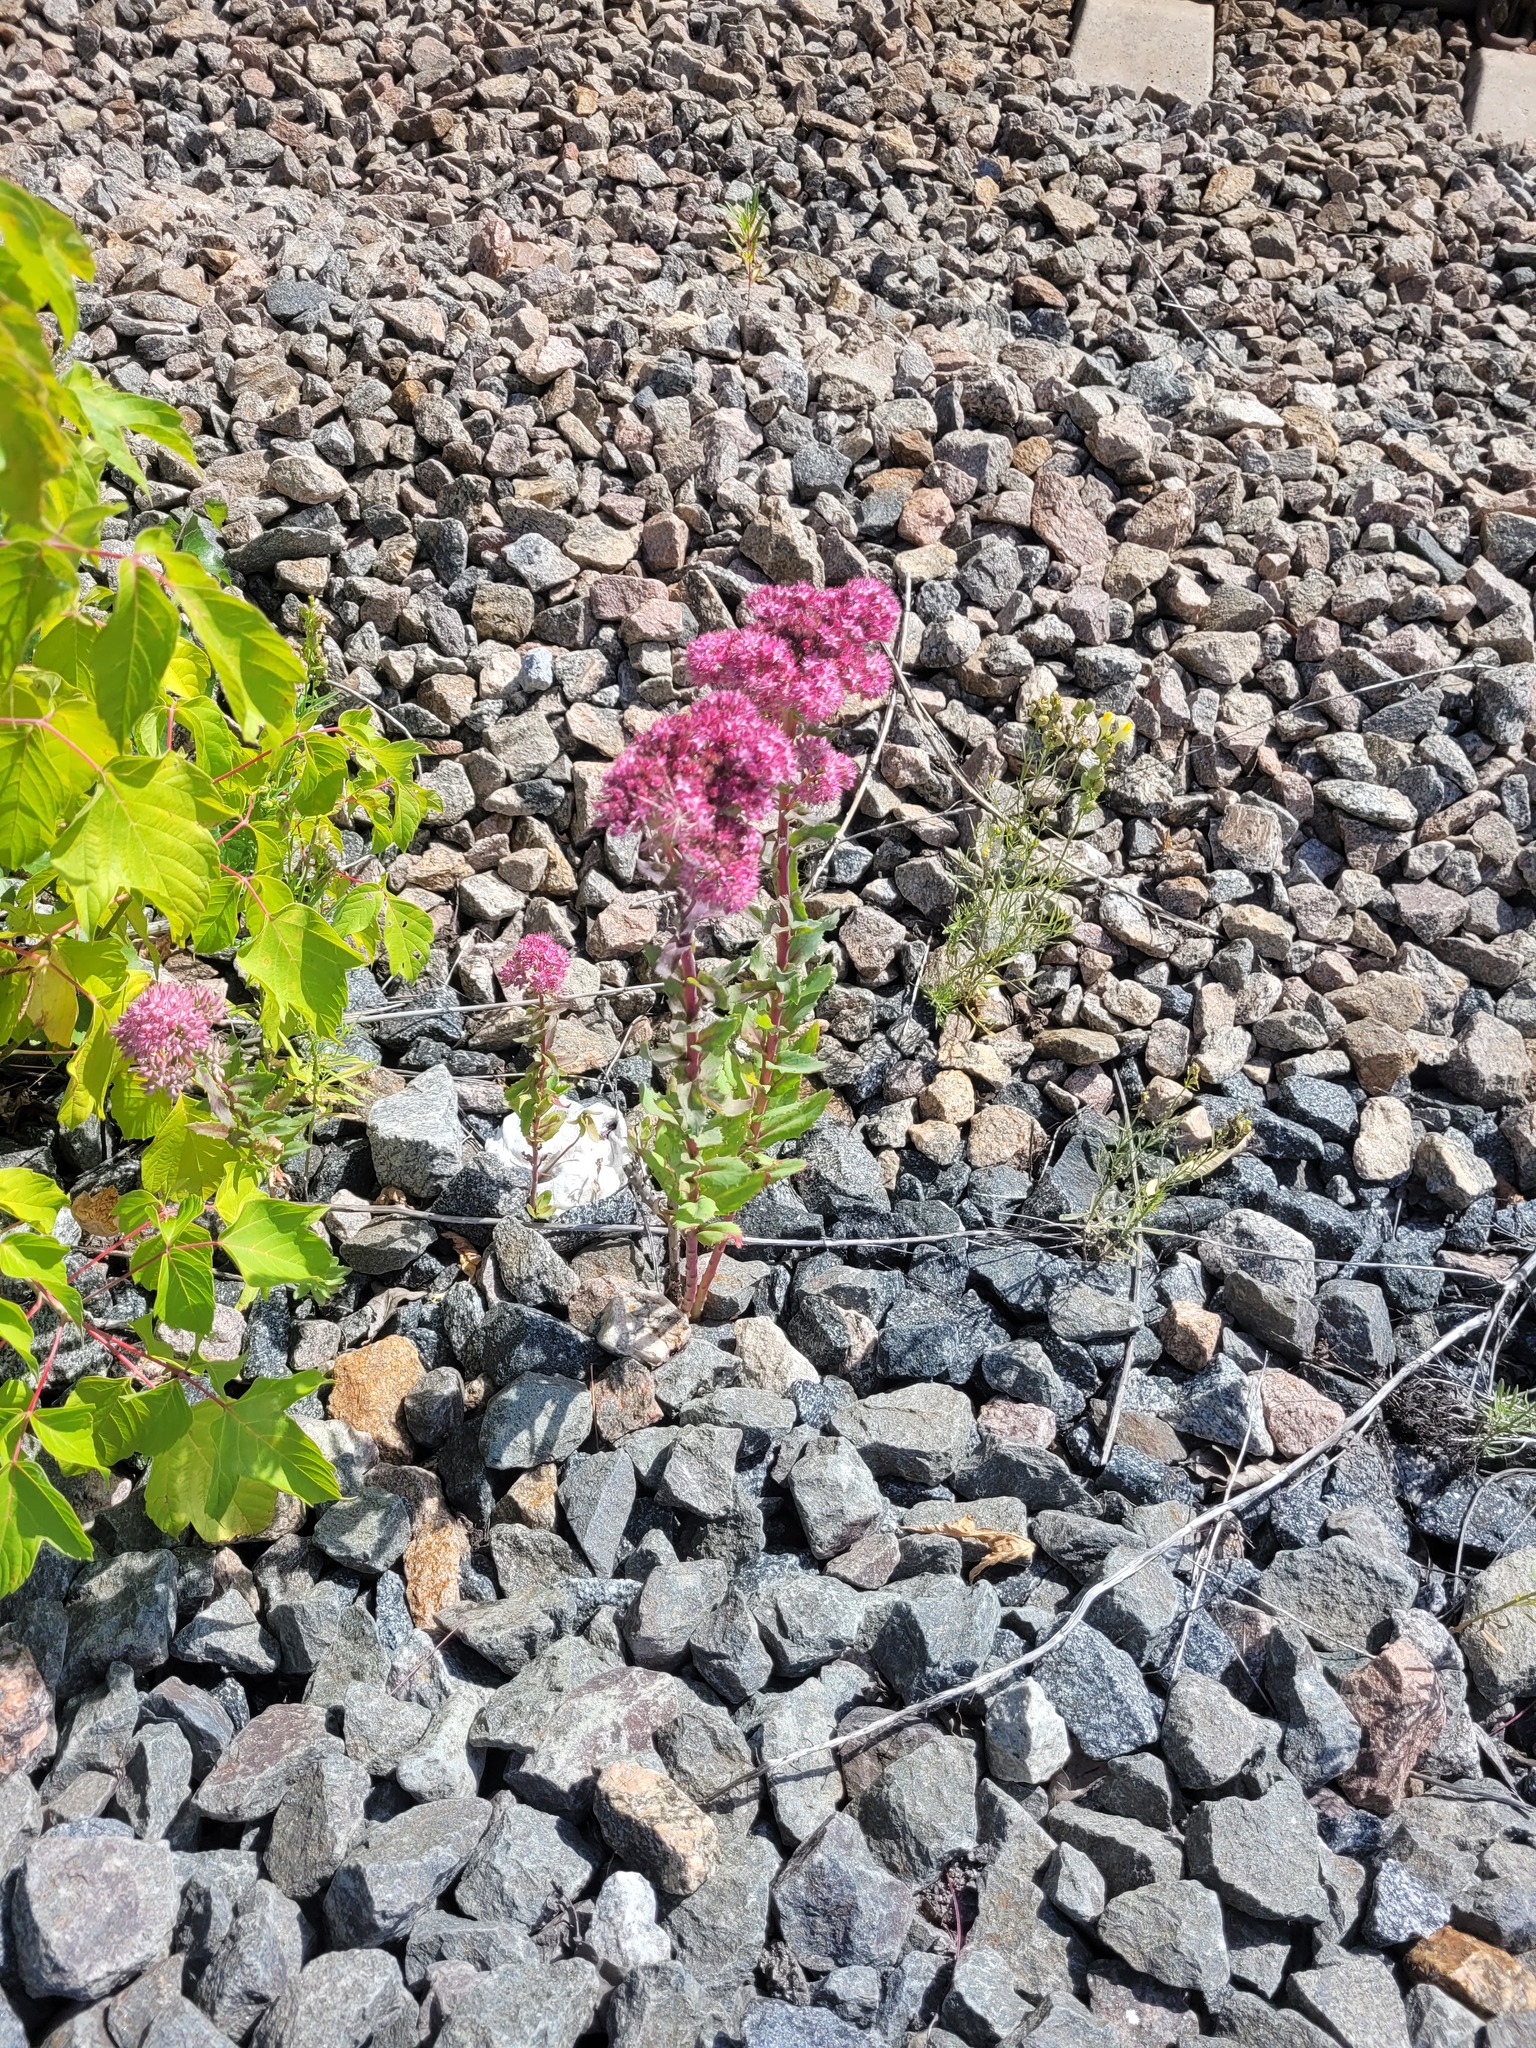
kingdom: Plantae
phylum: Tracheophyta
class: Magnoliopsida
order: Saxifragales
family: Crassulaceae
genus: Hylotelephium
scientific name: Hylotelephium telephium
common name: Live-forever
